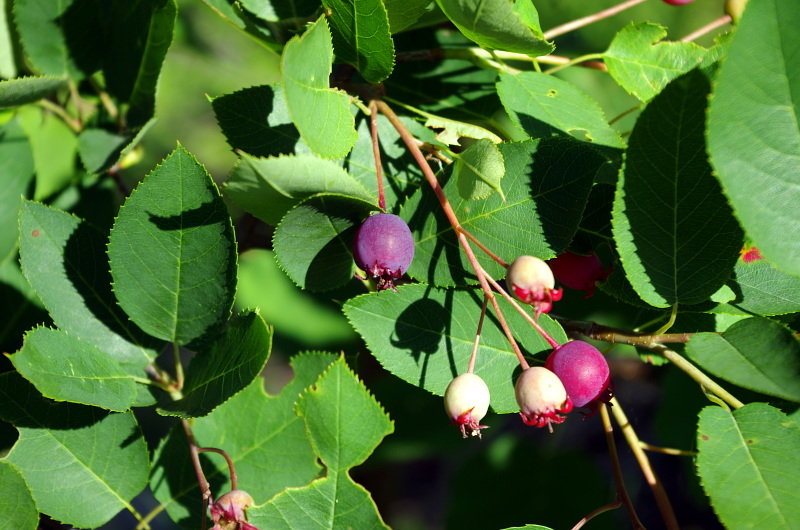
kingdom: Plantae
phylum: Tracheophyta
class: Magnoliopsida
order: Rosales
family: Rosaceae
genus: Amelanchier
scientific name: Amelanchier
